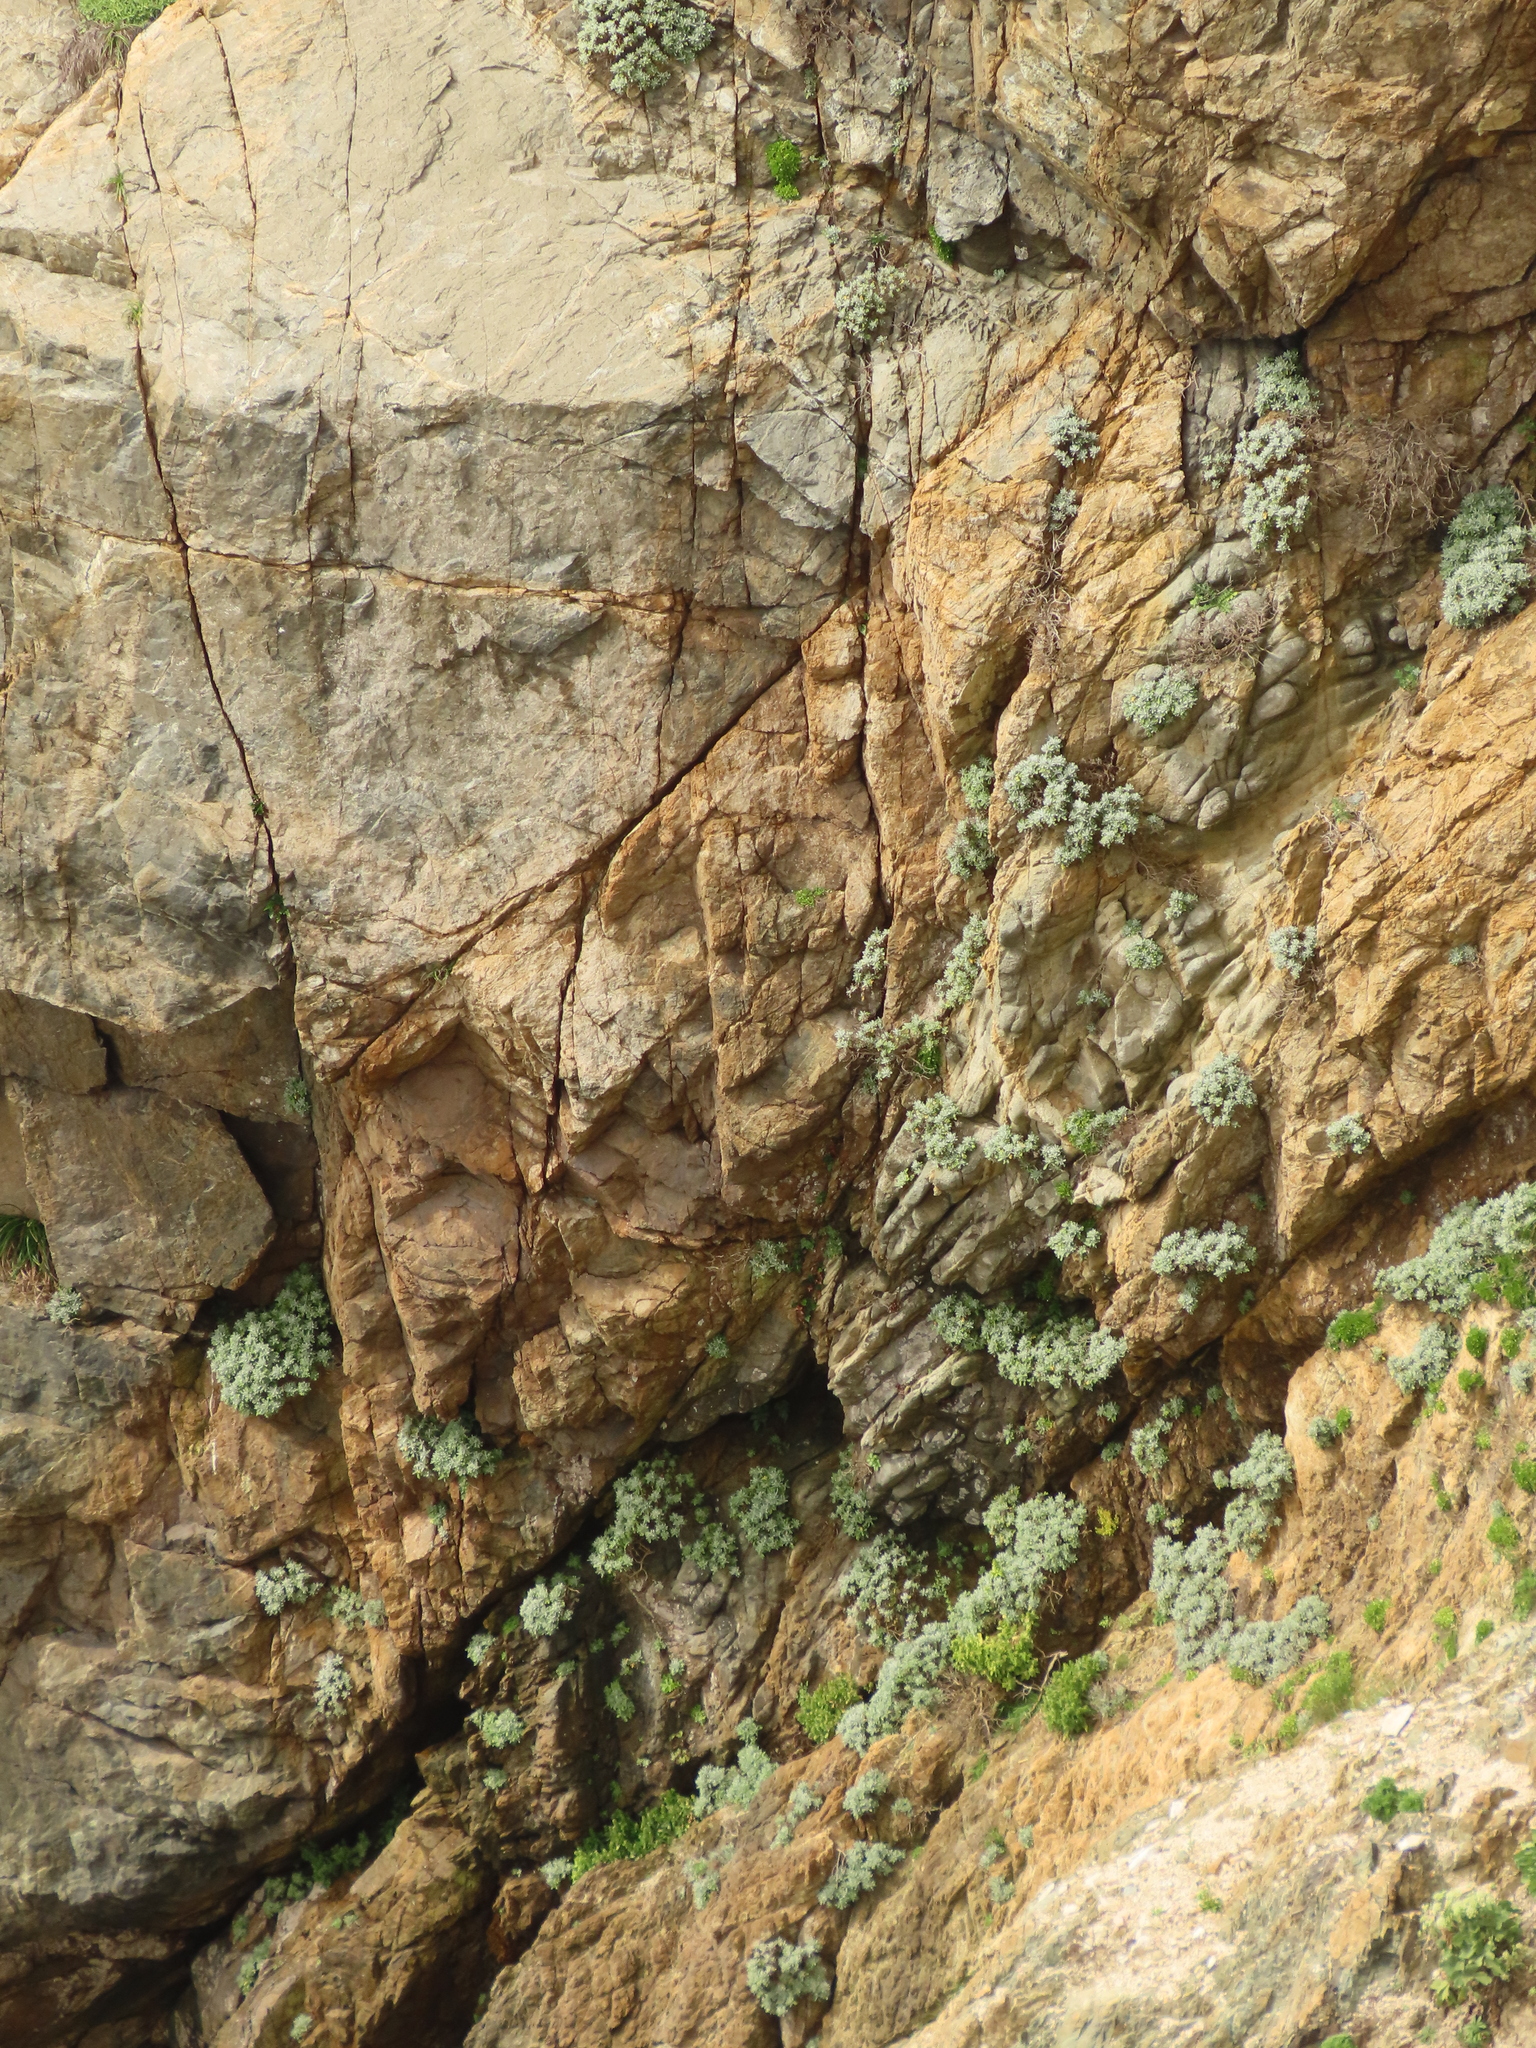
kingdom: Plantae
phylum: Tracheophyta
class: Magnoliopsida
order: Asterales
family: Asteraceae
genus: Crossostephium
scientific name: Crossostephium chinense
